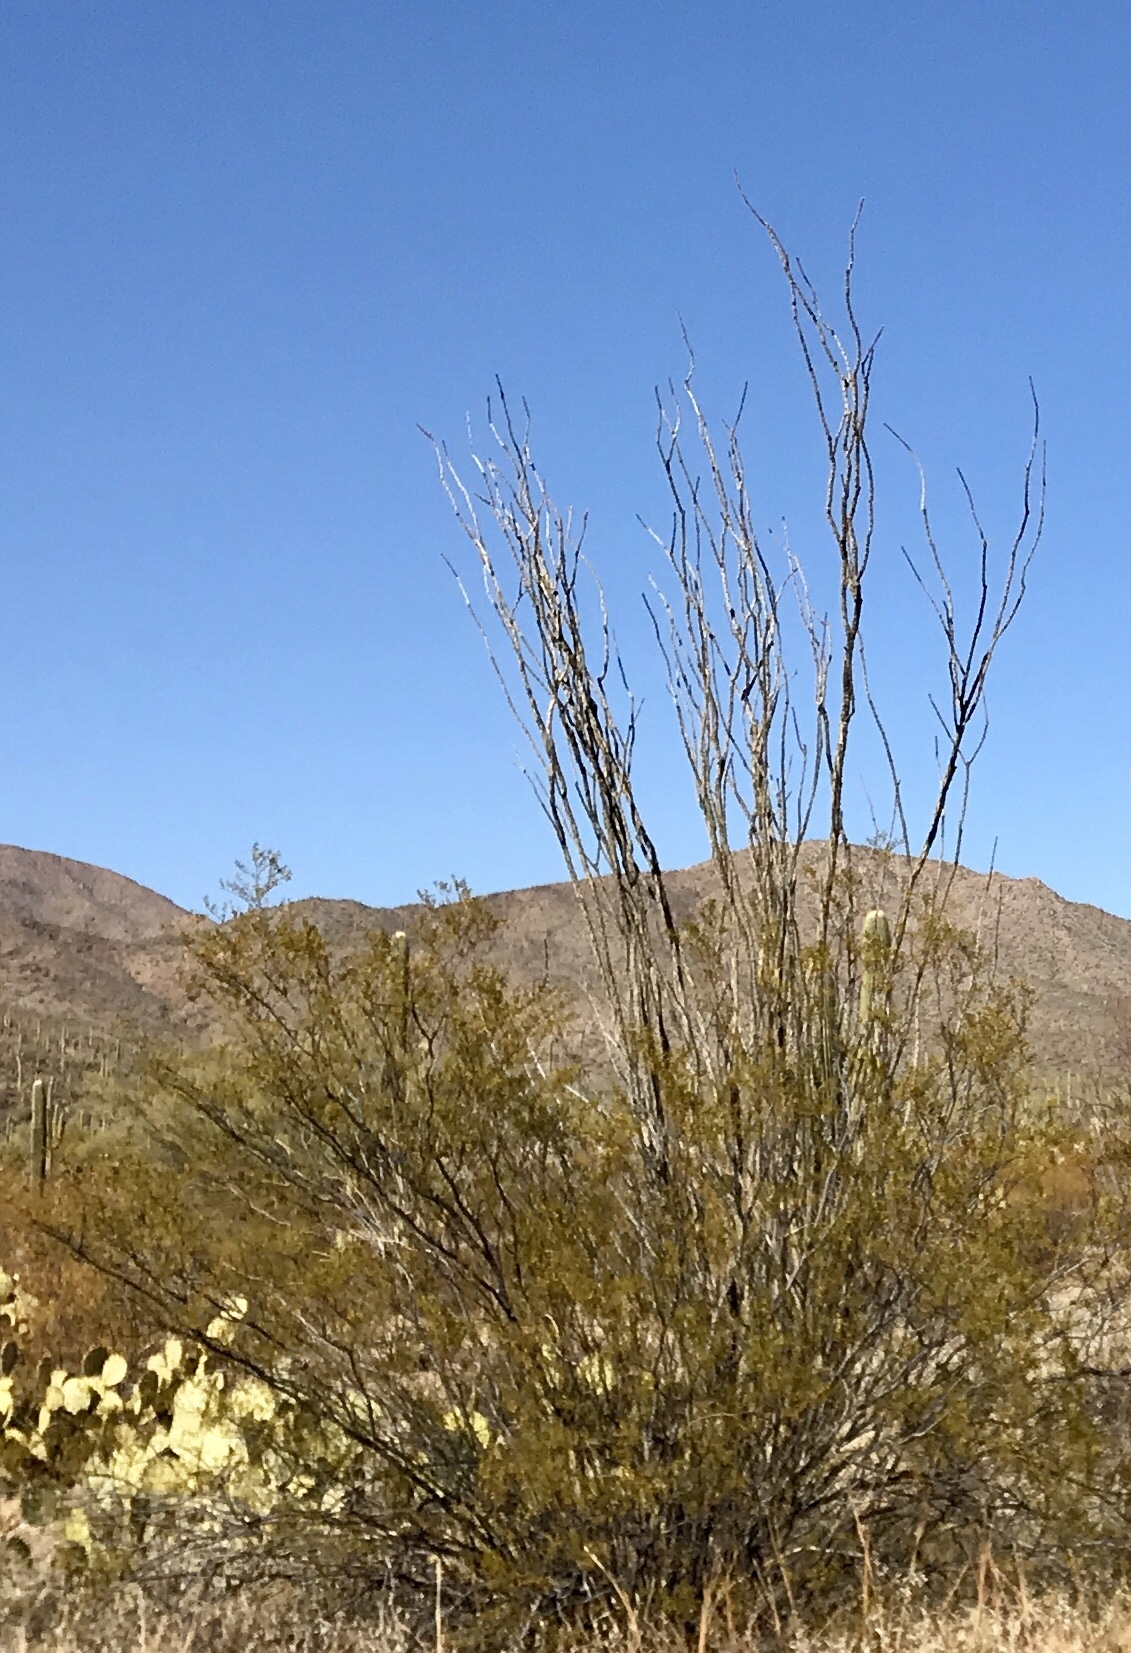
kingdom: Plantae
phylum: Tracheophyta
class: Magnoliopsida
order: Ericales
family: Fouquieriaceae
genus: Fouquieria
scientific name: Fouquieria splendens
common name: Vine-cactus
